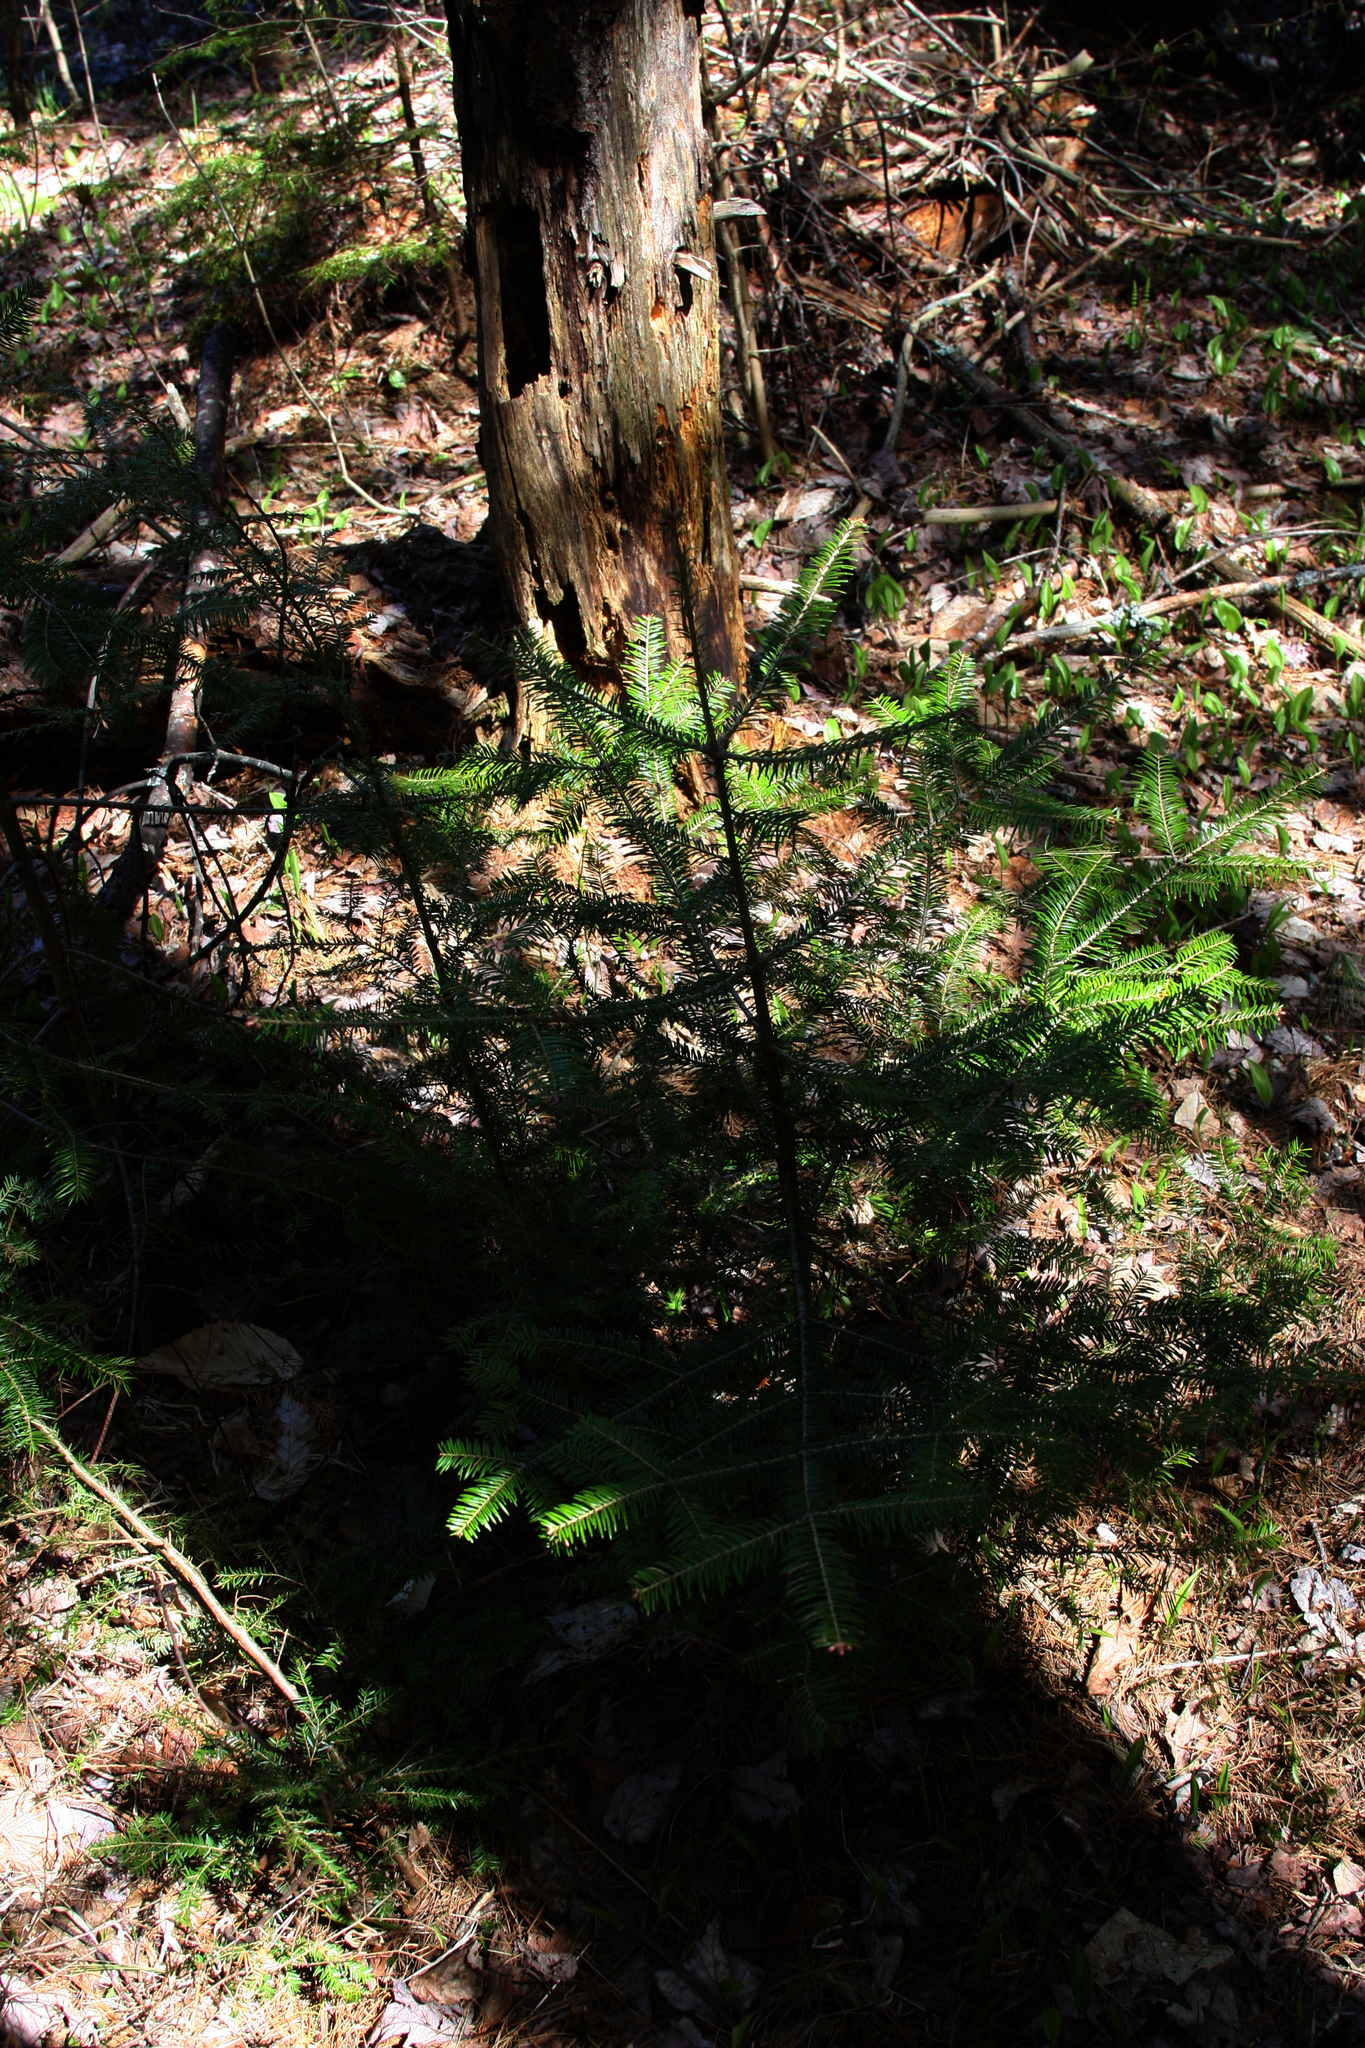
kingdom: Plantae
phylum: Tracheophyta
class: Pinopsida
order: Pinales
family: Pinaceae
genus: Abies
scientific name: Abies balsamea
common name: Balsam fir
